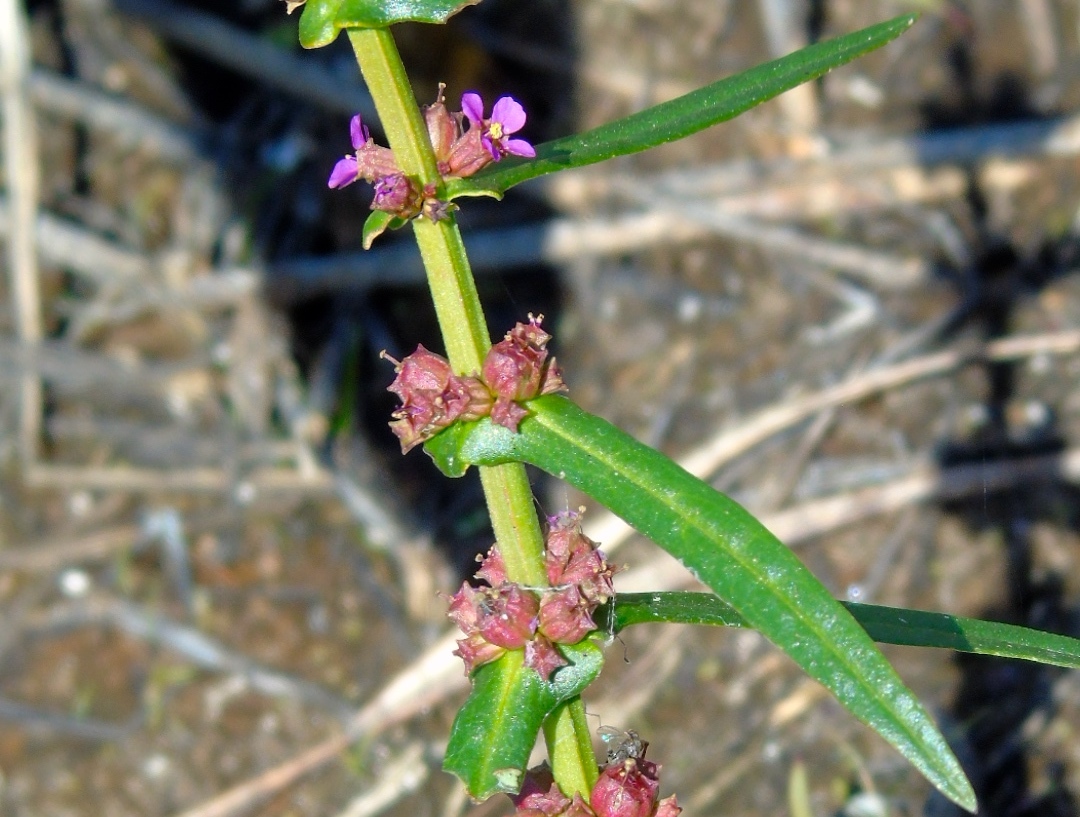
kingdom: Plantae
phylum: Tracheophyta
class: Magnoliopsida
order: Myrtales
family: Lythraceae
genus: Ammannia
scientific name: Ammannia coccinea
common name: Valley redstem
